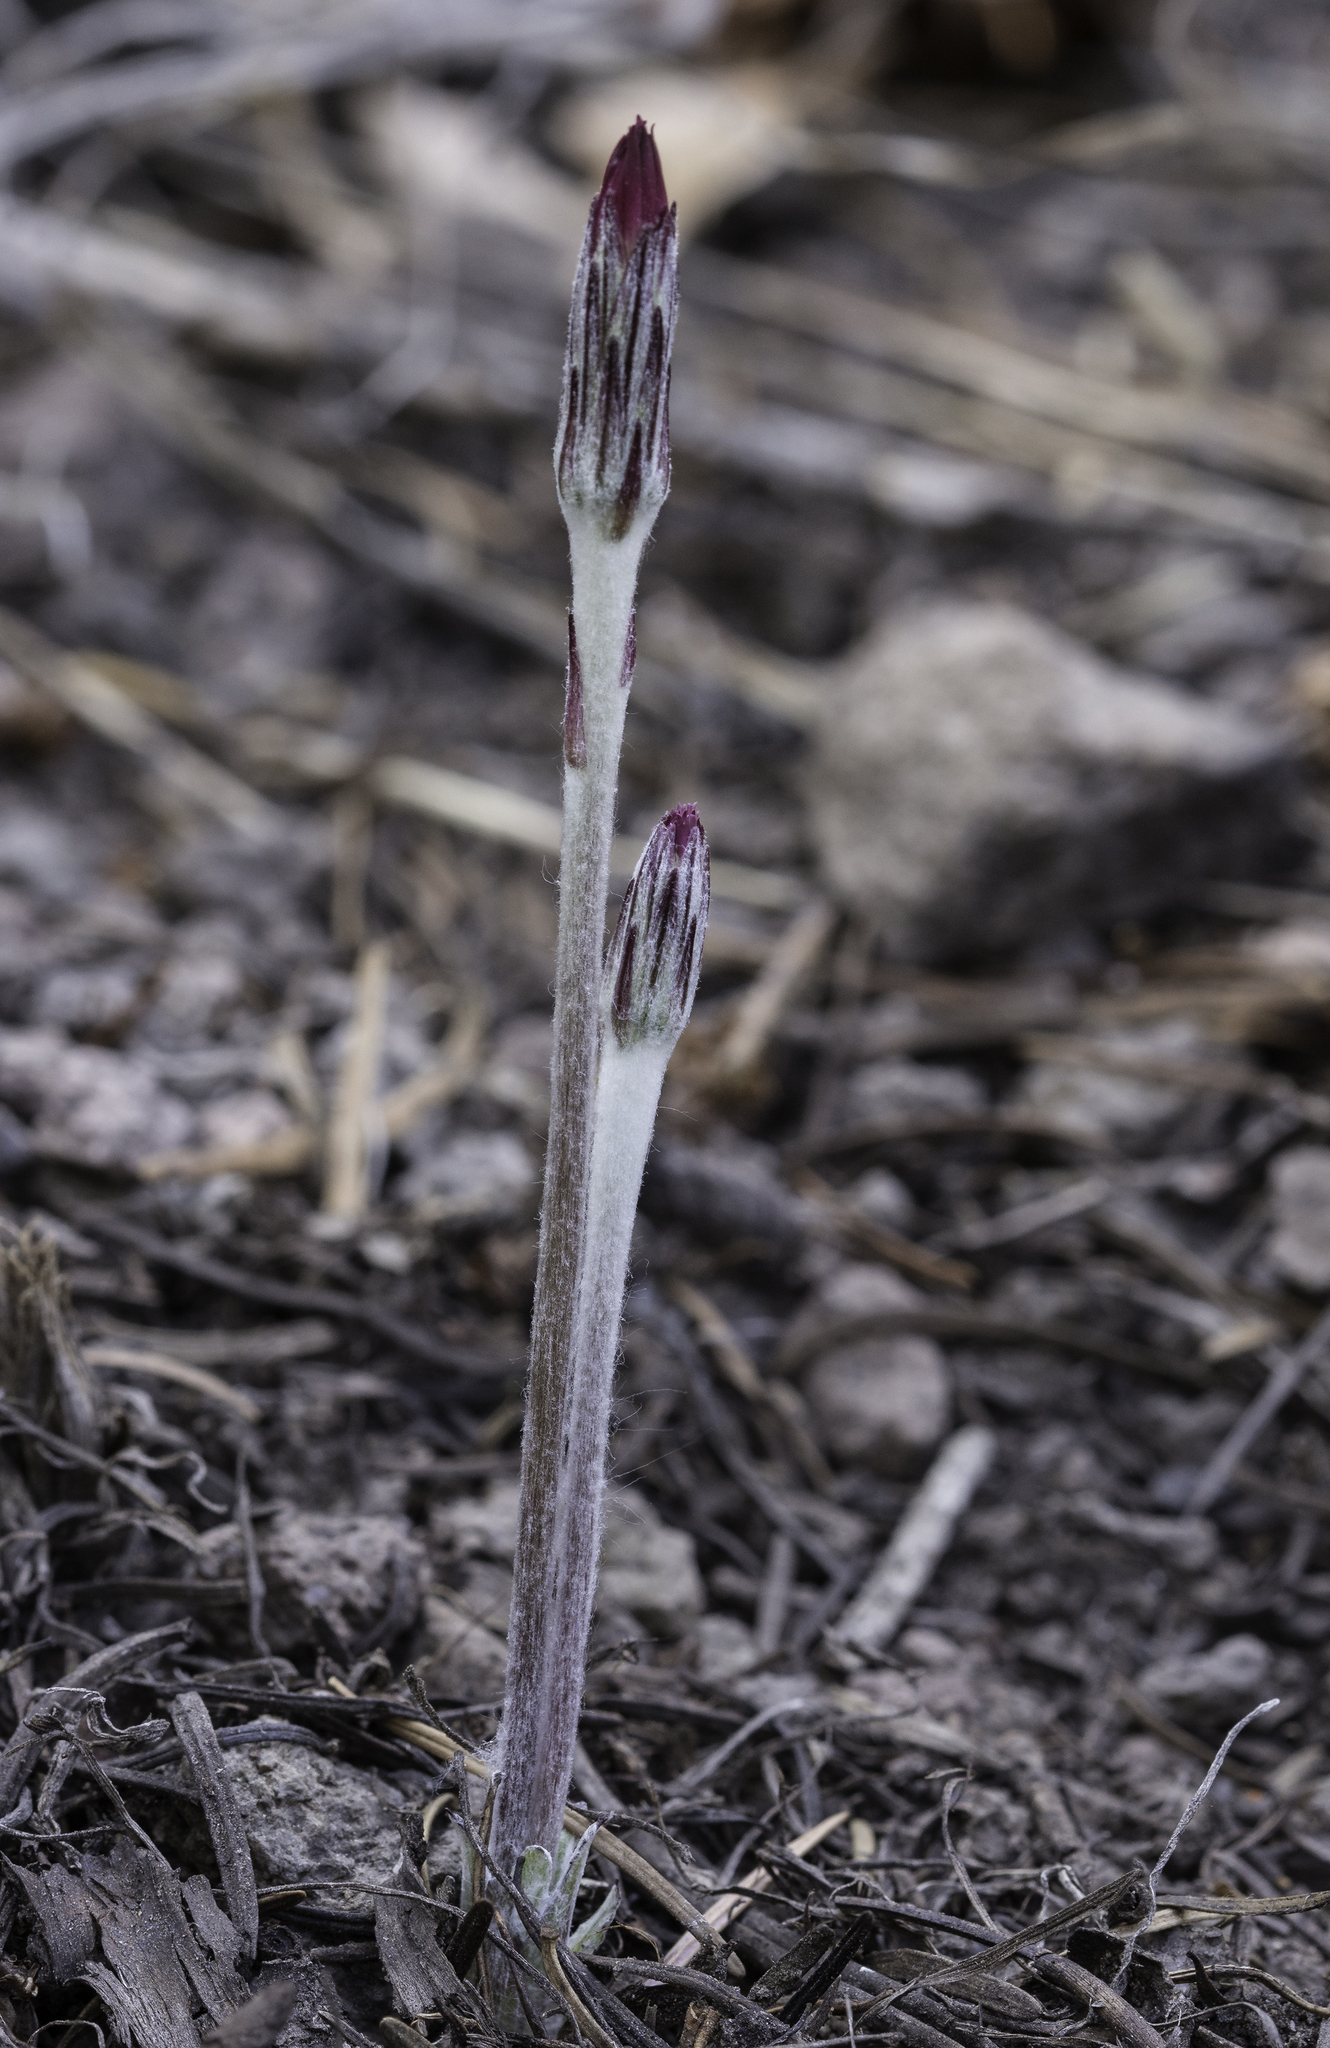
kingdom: Plantae
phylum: Tracheophyta
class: Magnoliopsida
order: Asterales
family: Asteraceae
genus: Leibnitzia
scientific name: Leibnitzia lyrata
